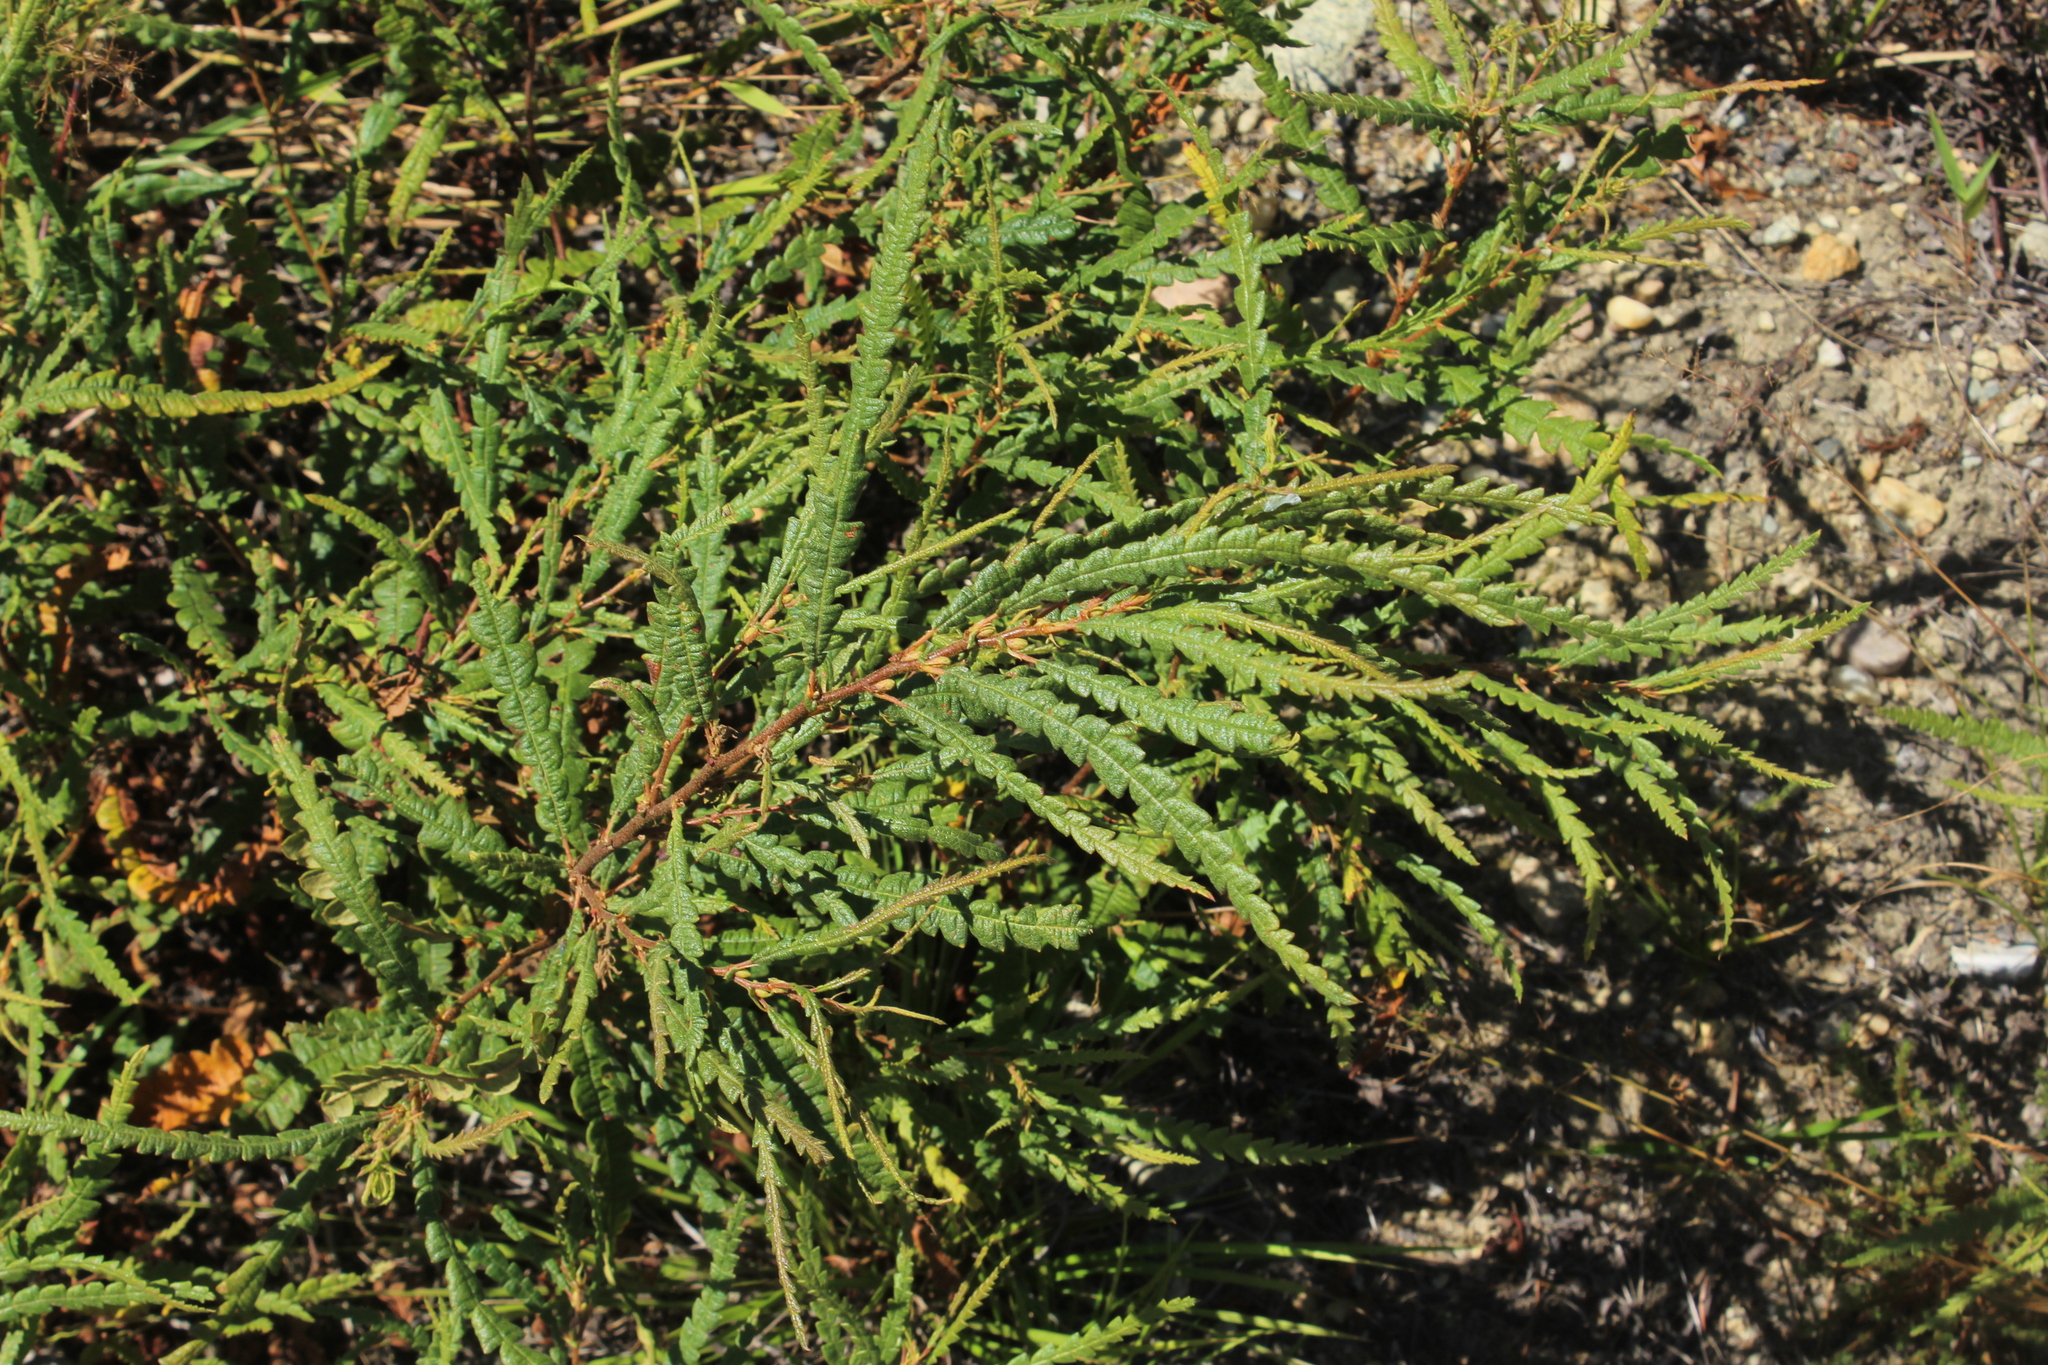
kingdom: Plantae
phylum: Tracheophyta
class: Magnoliopsida
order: Fagales
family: Myricaceae
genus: Comptonia
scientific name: Comptonia peregrina
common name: Sweet-fern
